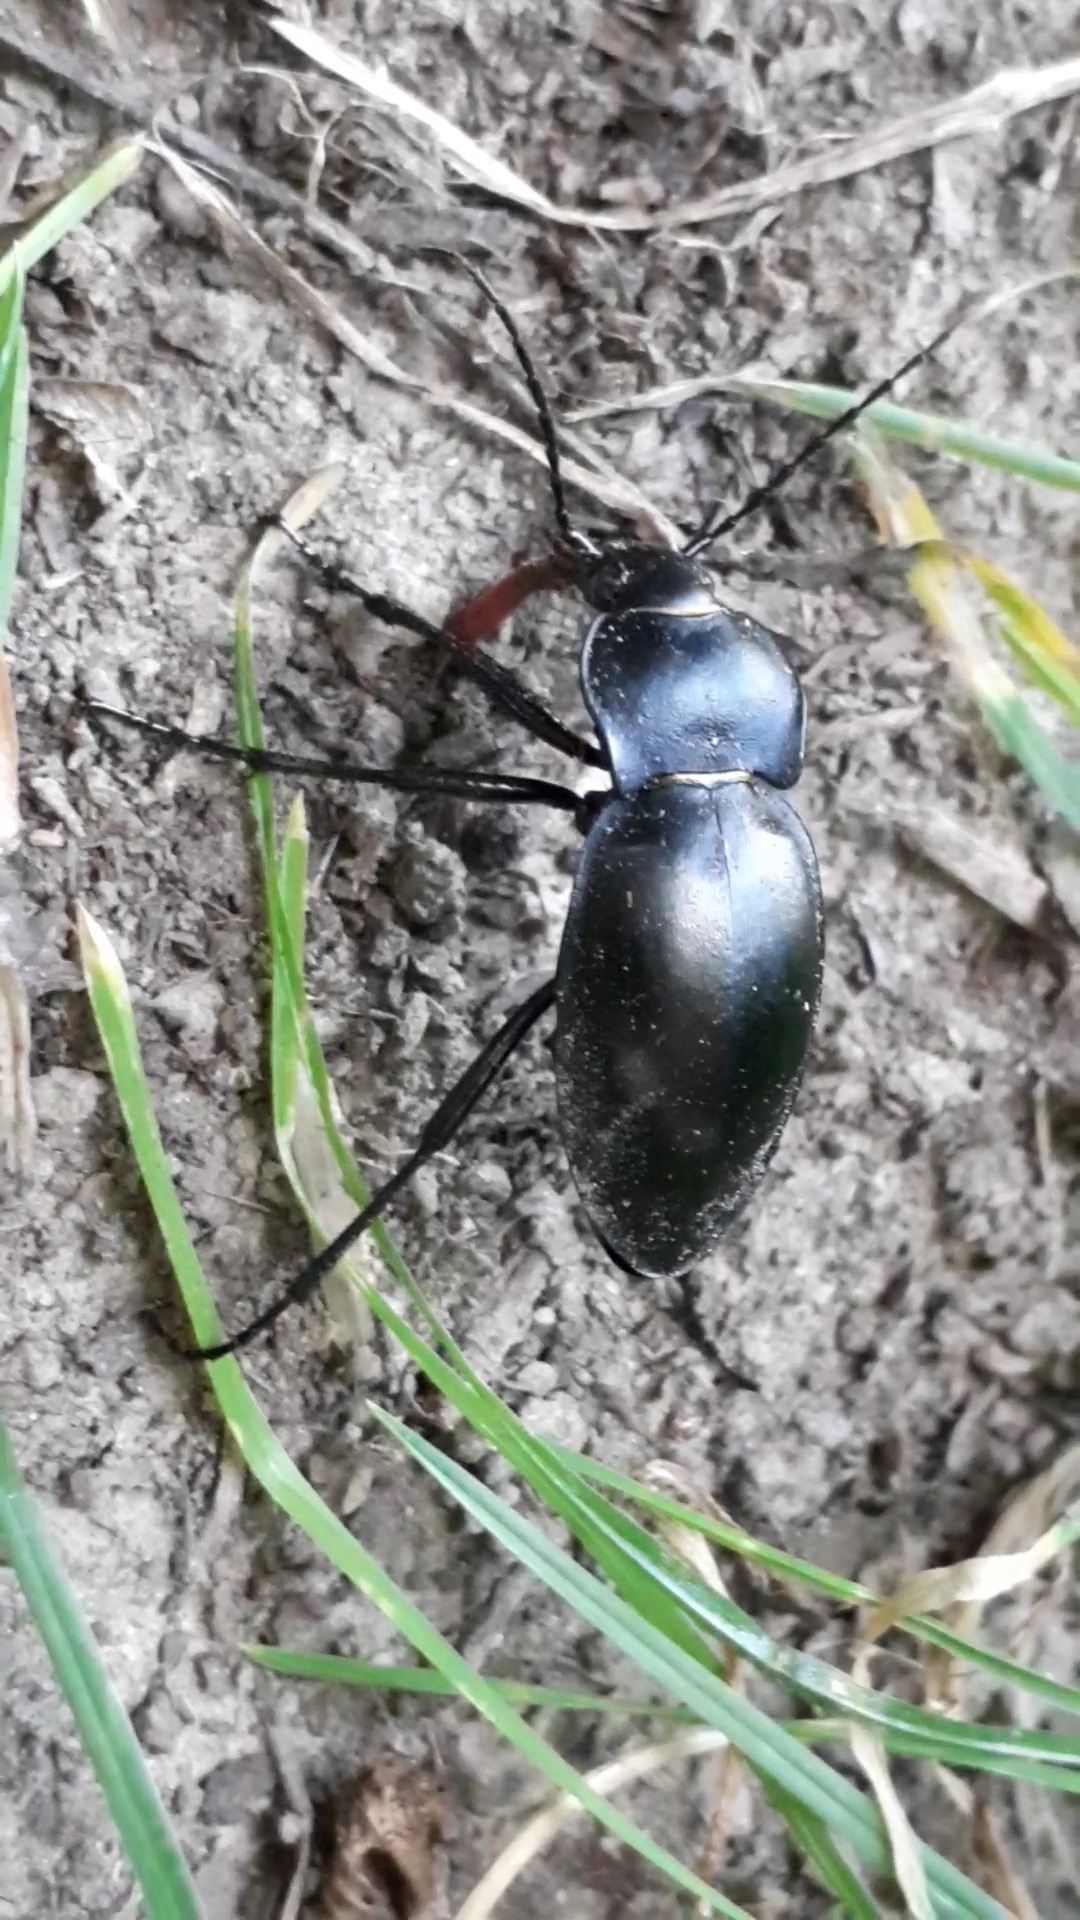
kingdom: Animalia
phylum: Arthropoda
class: Insecta
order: Coleoptera
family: Carabidae
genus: Carabus
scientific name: Carabus glabratus
